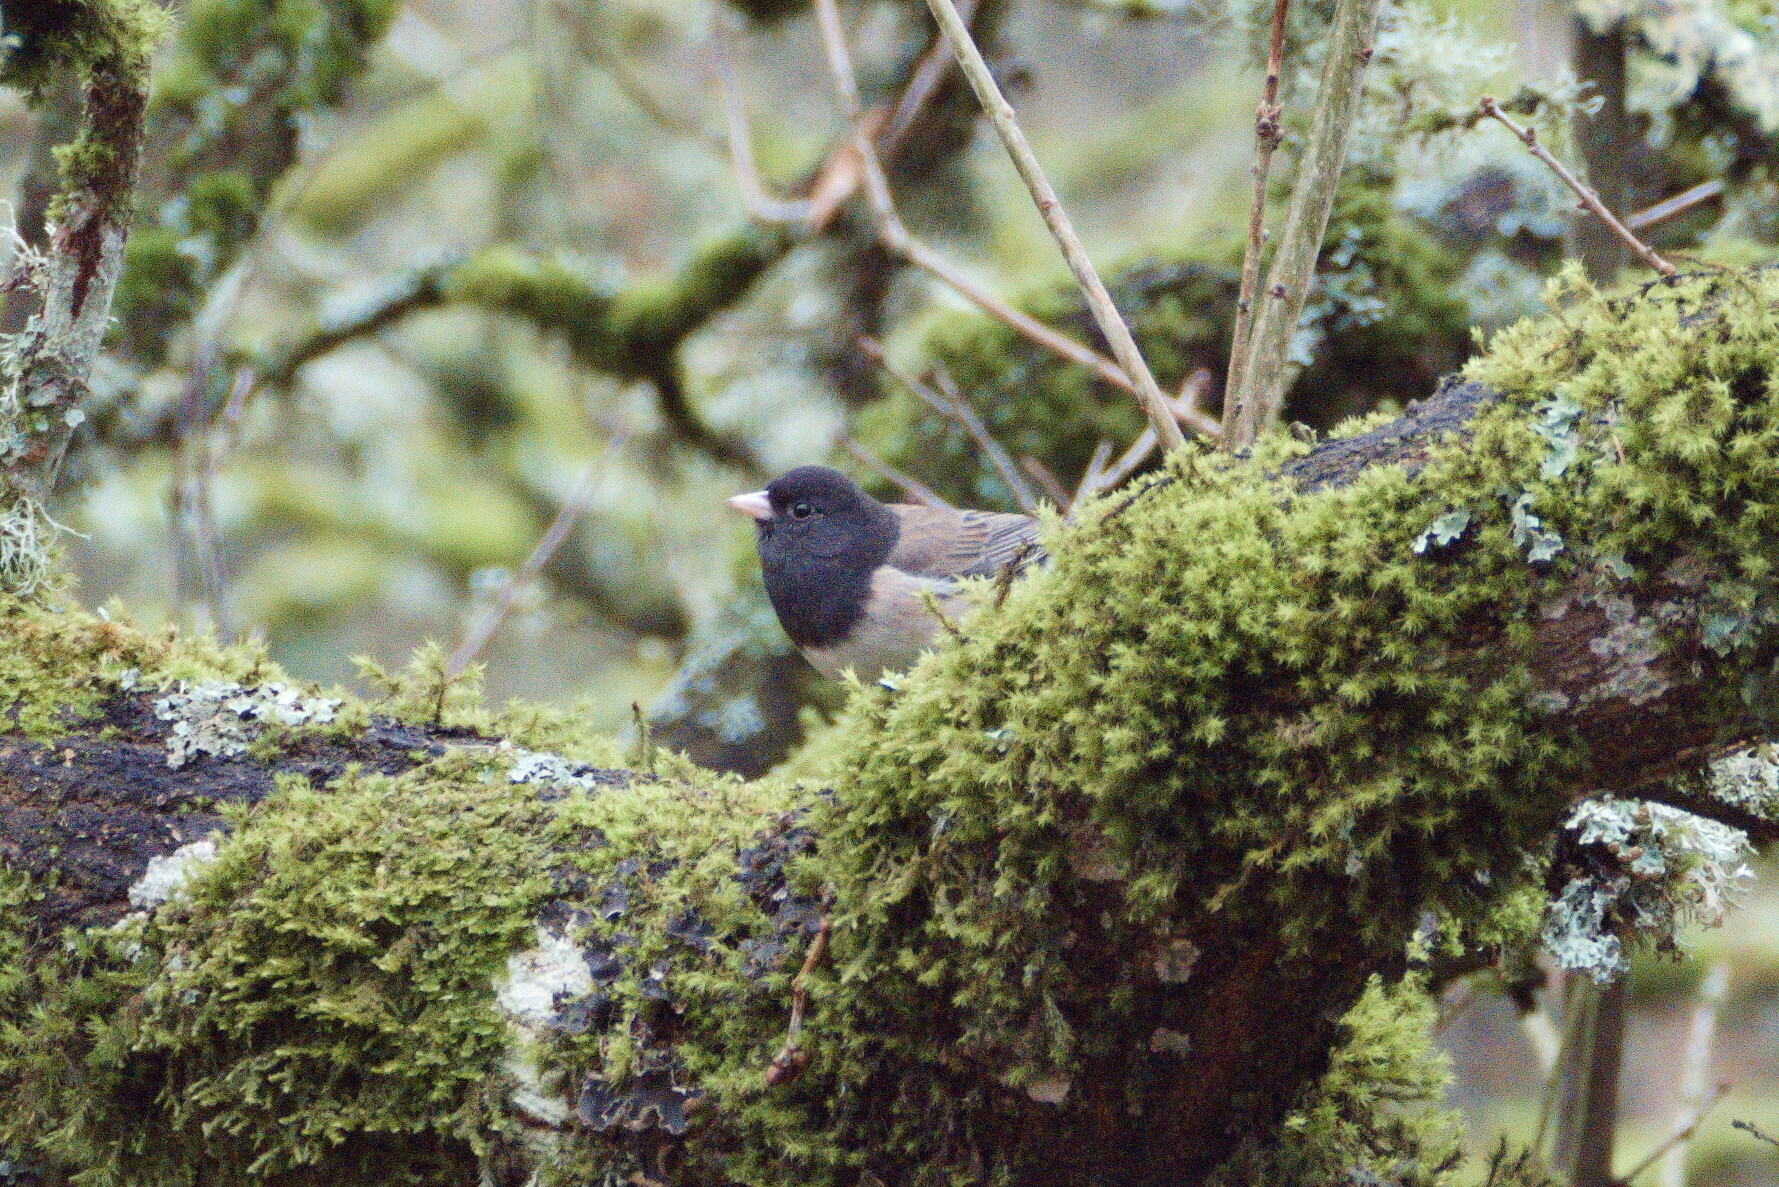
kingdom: Animalia
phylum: Chordata
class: Aves
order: Passeriformes
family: Passerellidae
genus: Junco
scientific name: Junco hyemalis
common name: Dark-eyed junco
